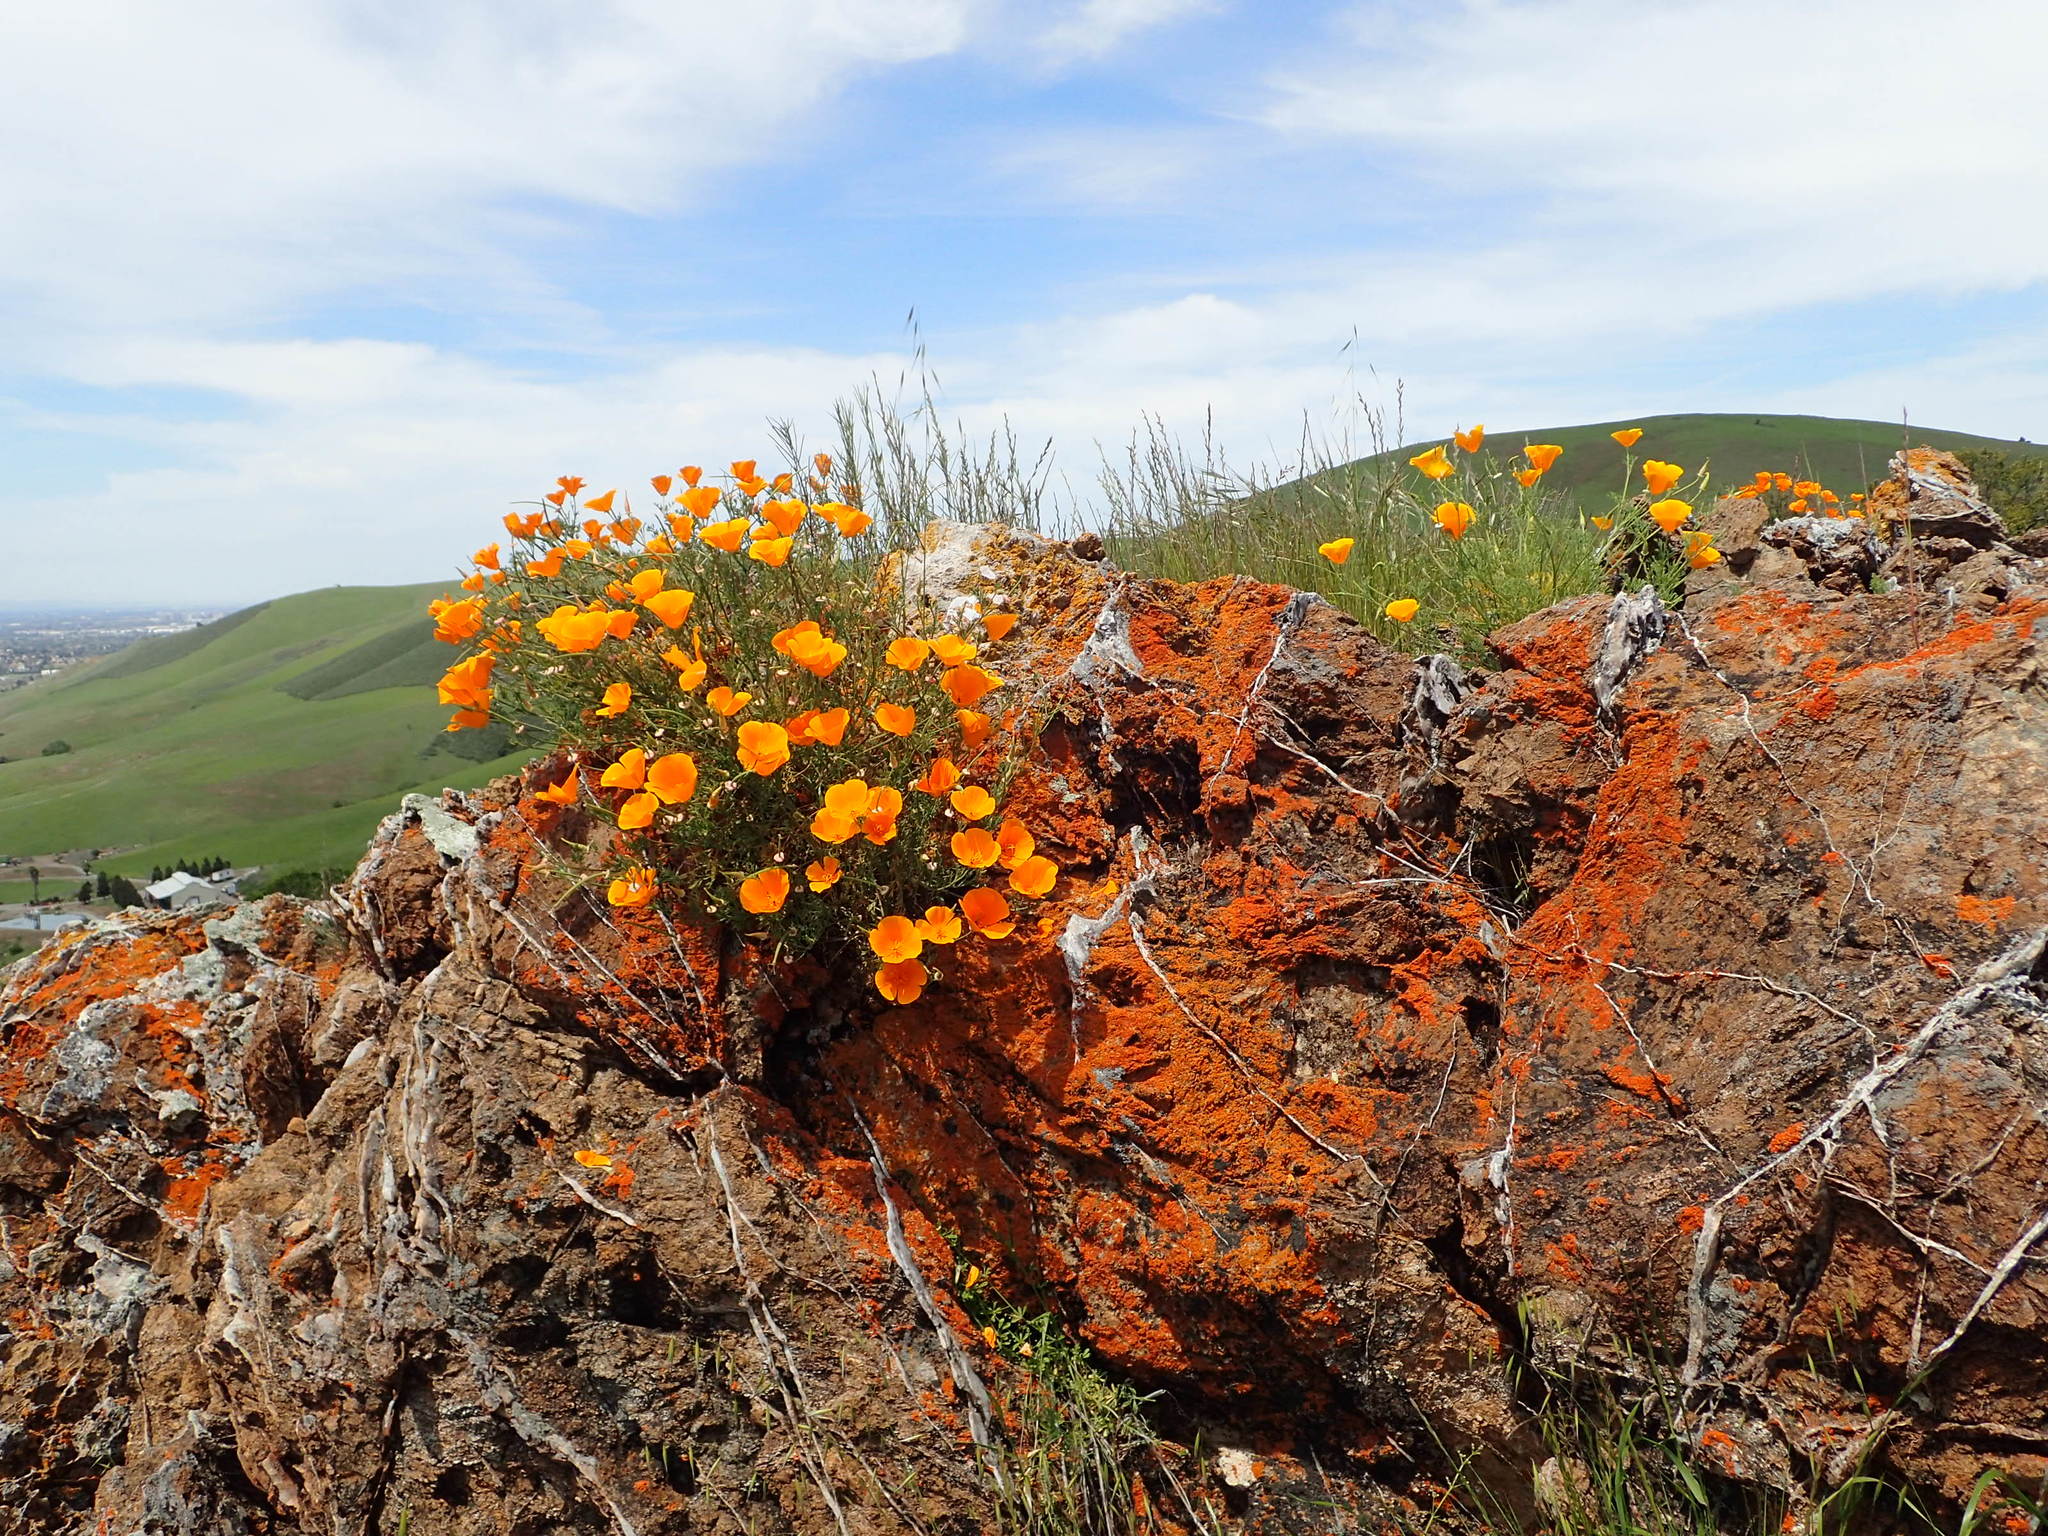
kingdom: Plantae
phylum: Tracheophyta
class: Magnoliopsida
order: Ranunculales
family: Papaveraceae
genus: Eschscholzia
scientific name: Eschscholzia californica
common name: California poppy
